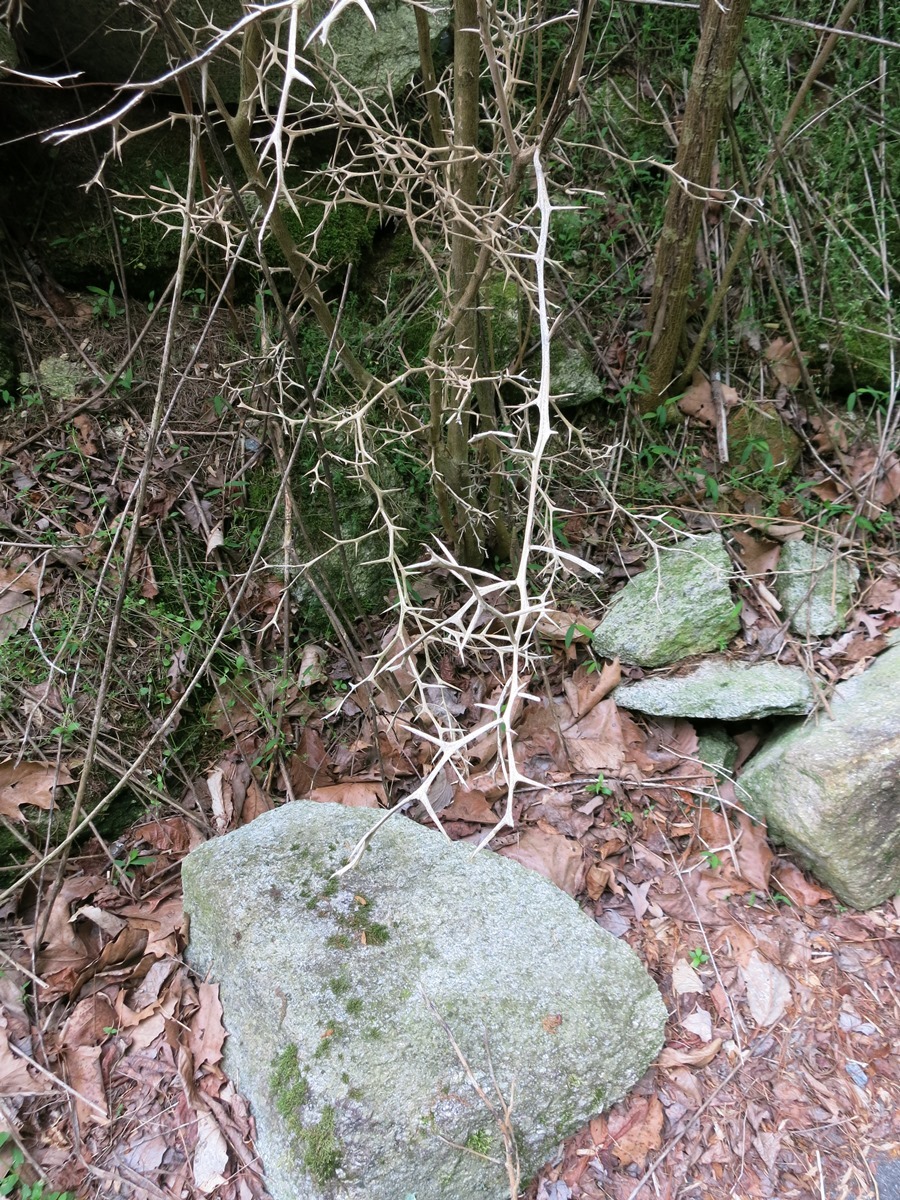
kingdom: Plantae
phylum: Tracheophyta
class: Magnoliopsida
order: Sapindales
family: Rutaceae
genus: Citrus
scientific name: Citrus trifoliata
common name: Japanese bitter-orange
